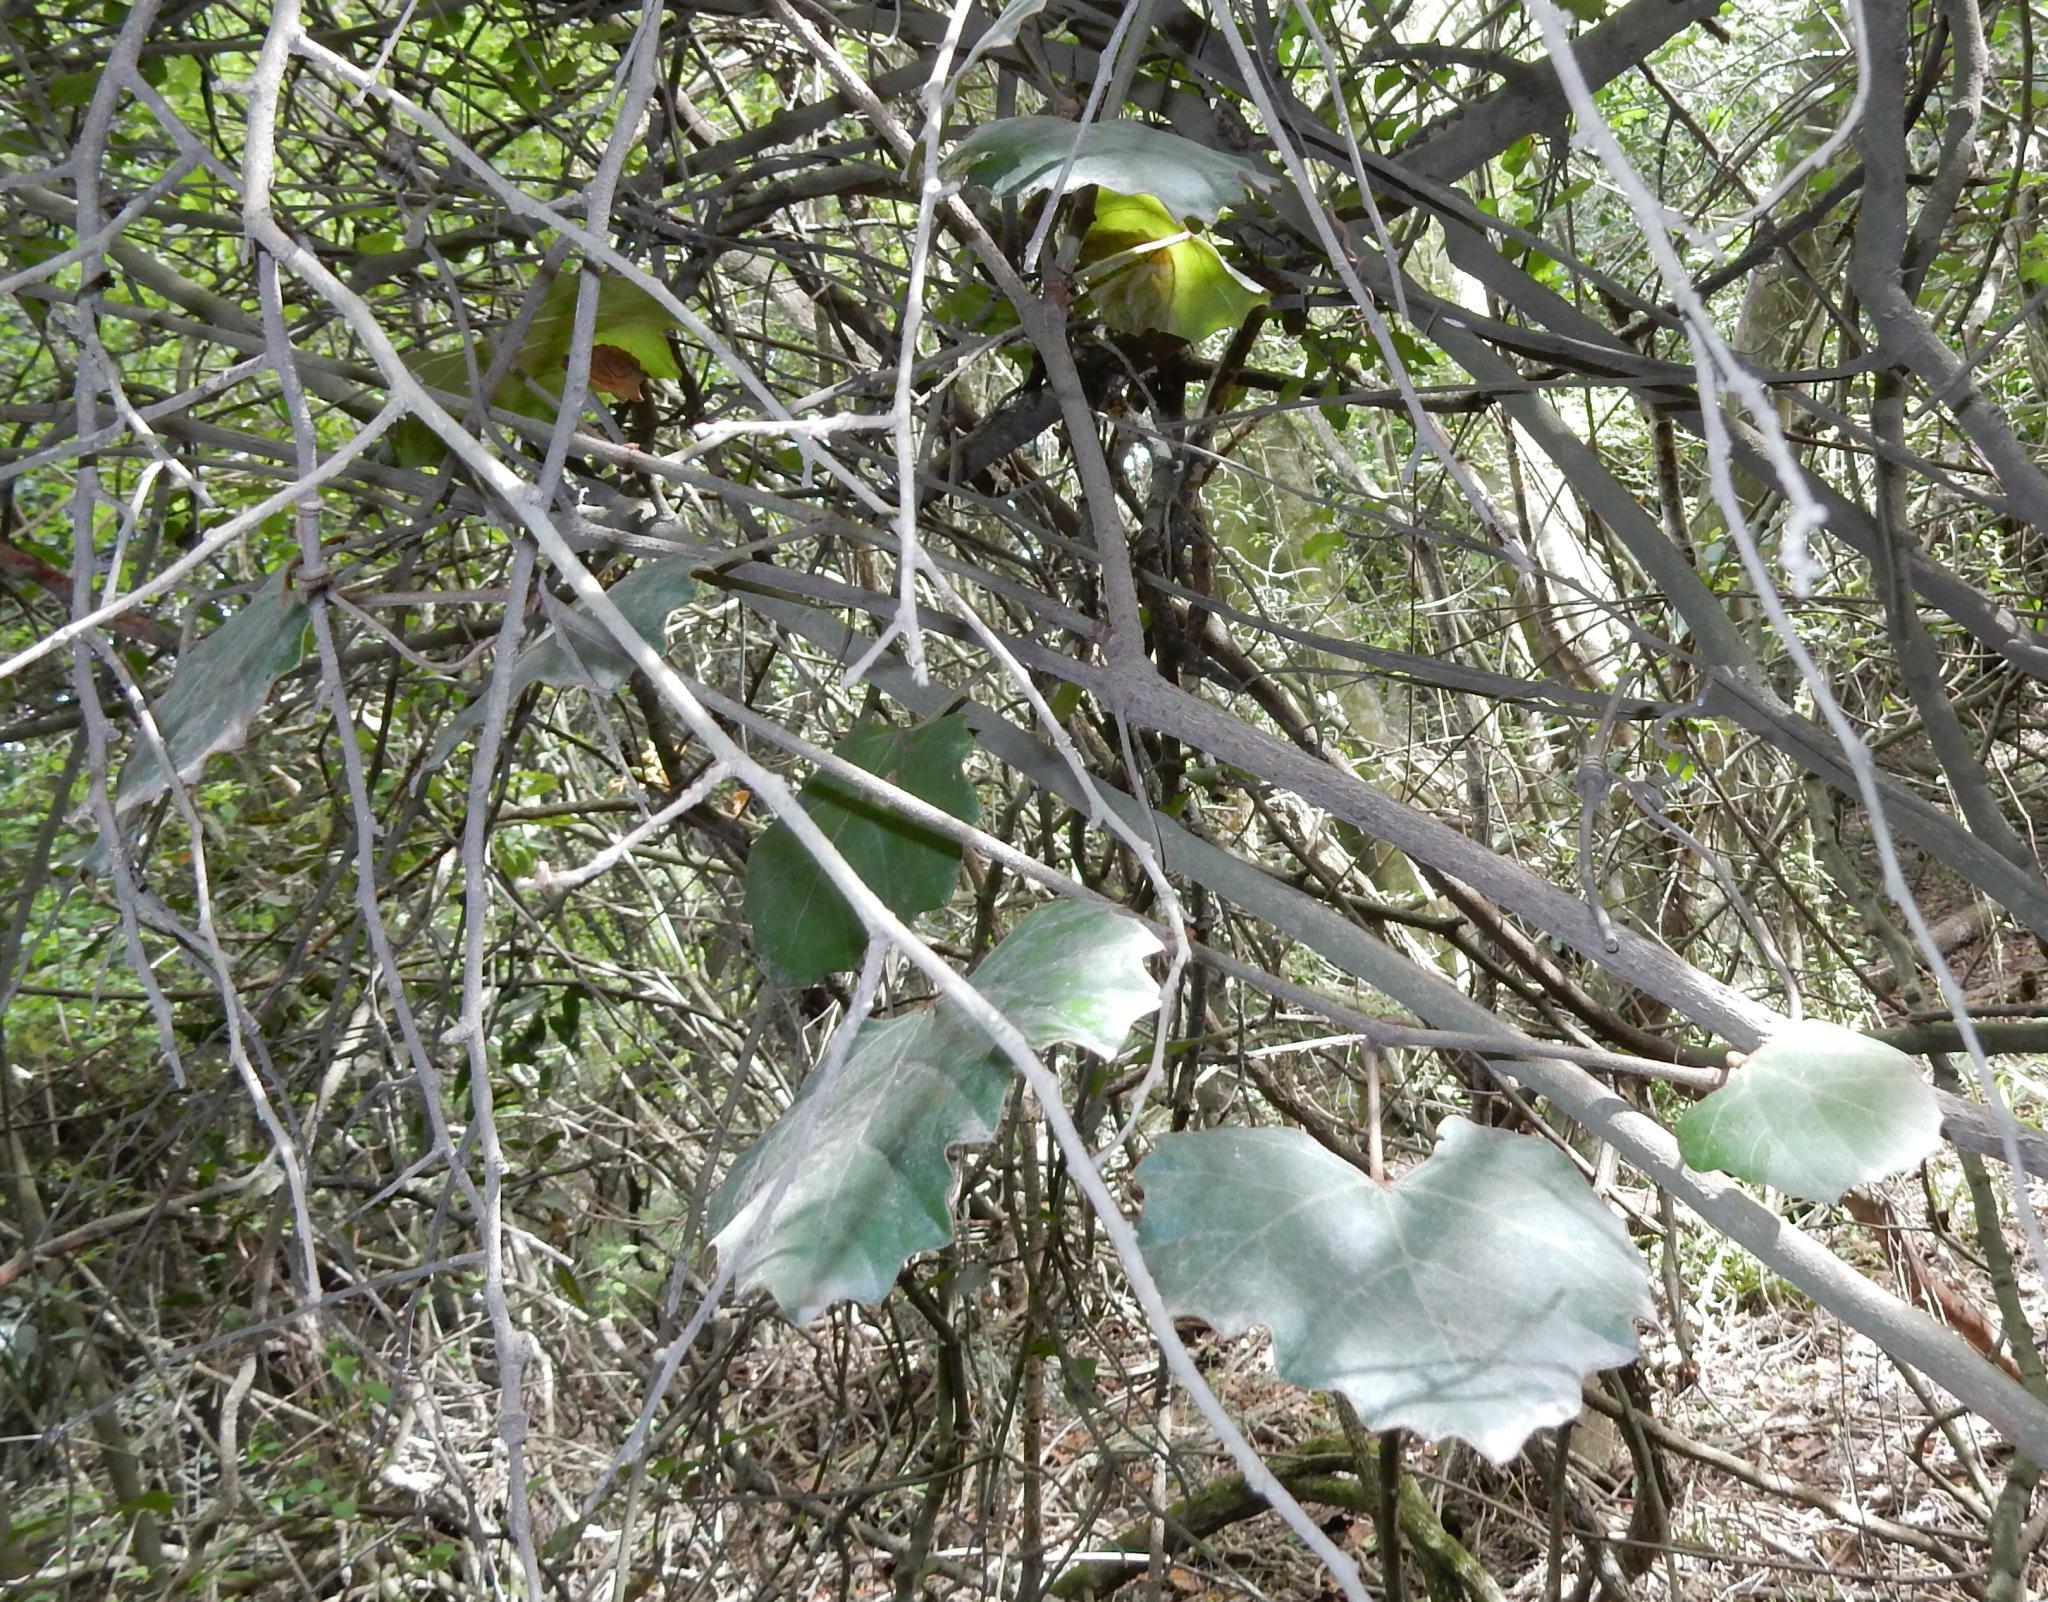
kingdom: Plantae
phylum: Tracheophyta
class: Magnoliopsida
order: Vitales
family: Vitaceae
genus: Rhoicissus
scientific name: Rhoicissus tomentosa
